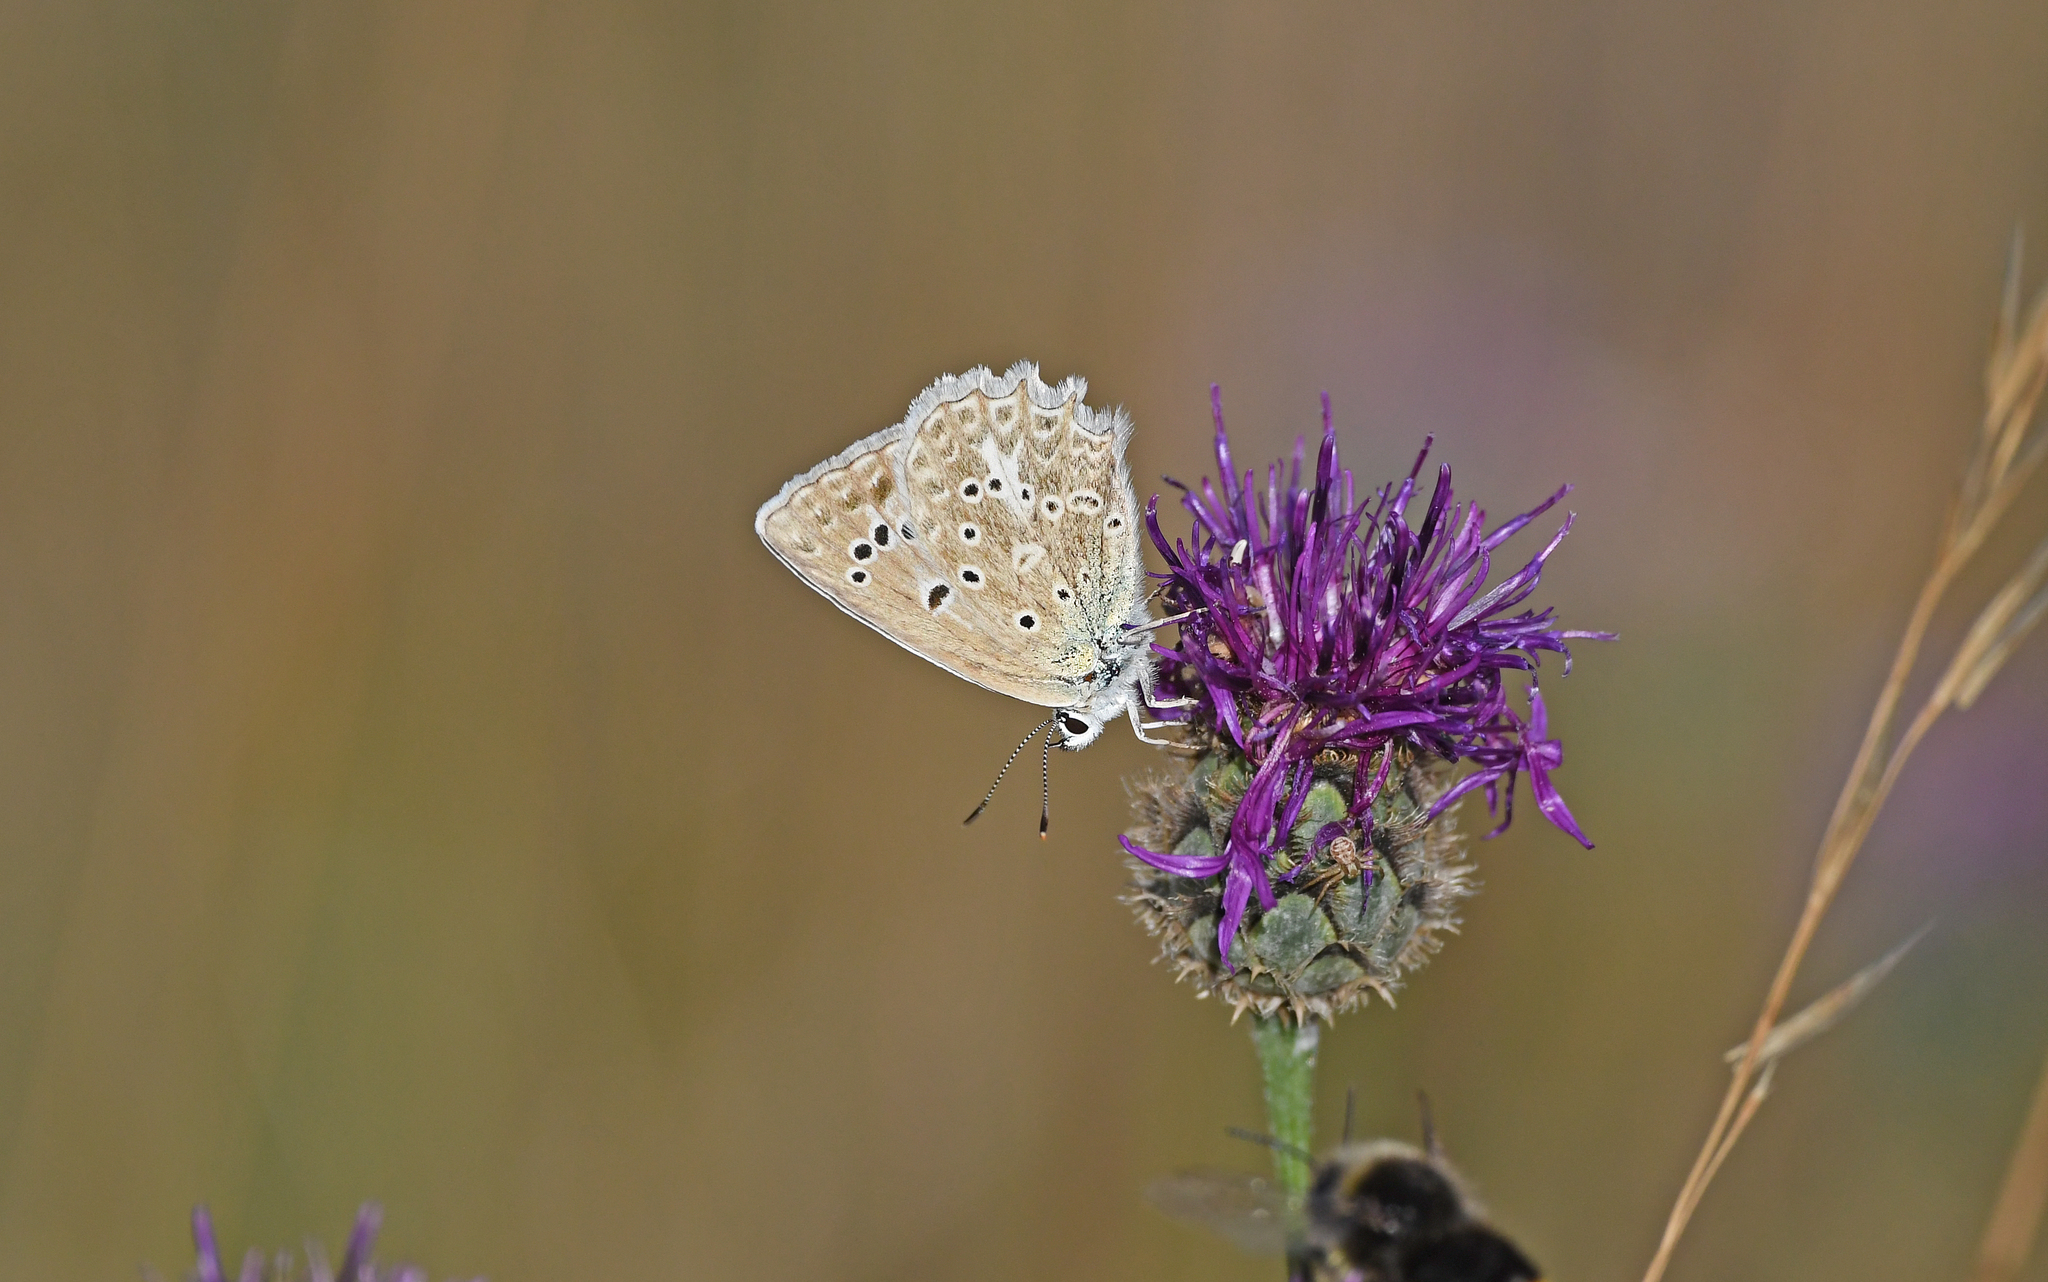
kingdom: Animalia
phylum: Arthropoda
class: Insecta
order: Lepidoptera
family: Lycaenidae
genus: Polyommatus
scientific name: Polyommatus daphnis
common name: Meleager's blue
